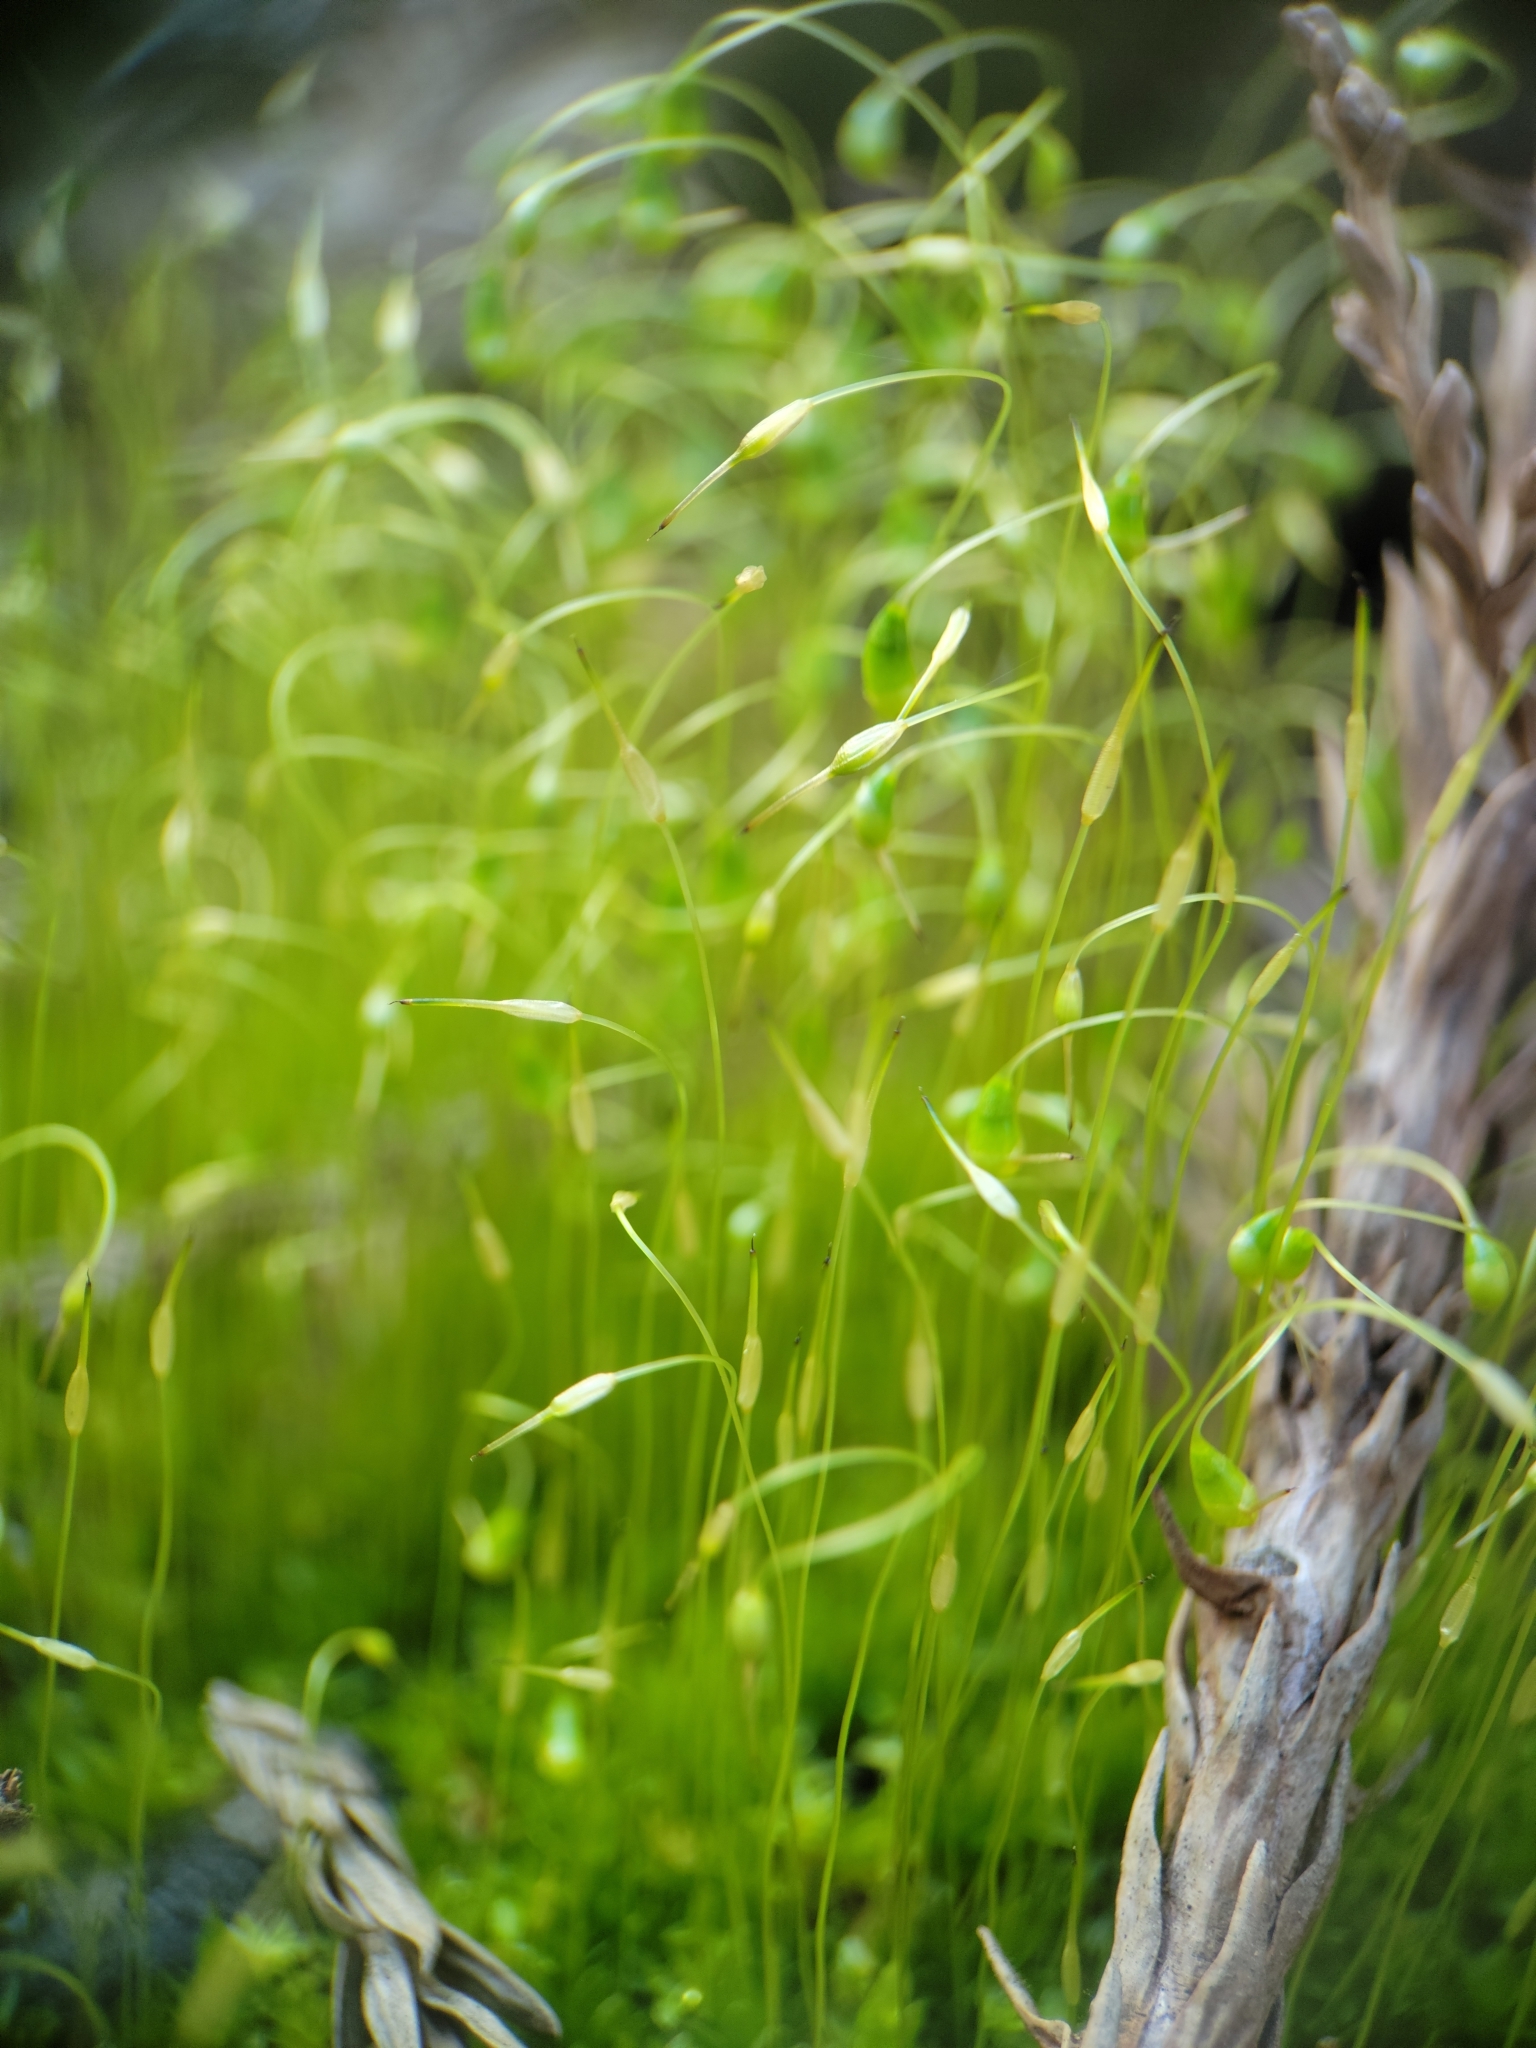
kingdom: Plantae
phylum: Bryophyta
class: Bryopsida
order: Funariales
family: Funariaceae
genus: Funaria
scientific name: Funaria hygrometrica
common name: Common cord moss
